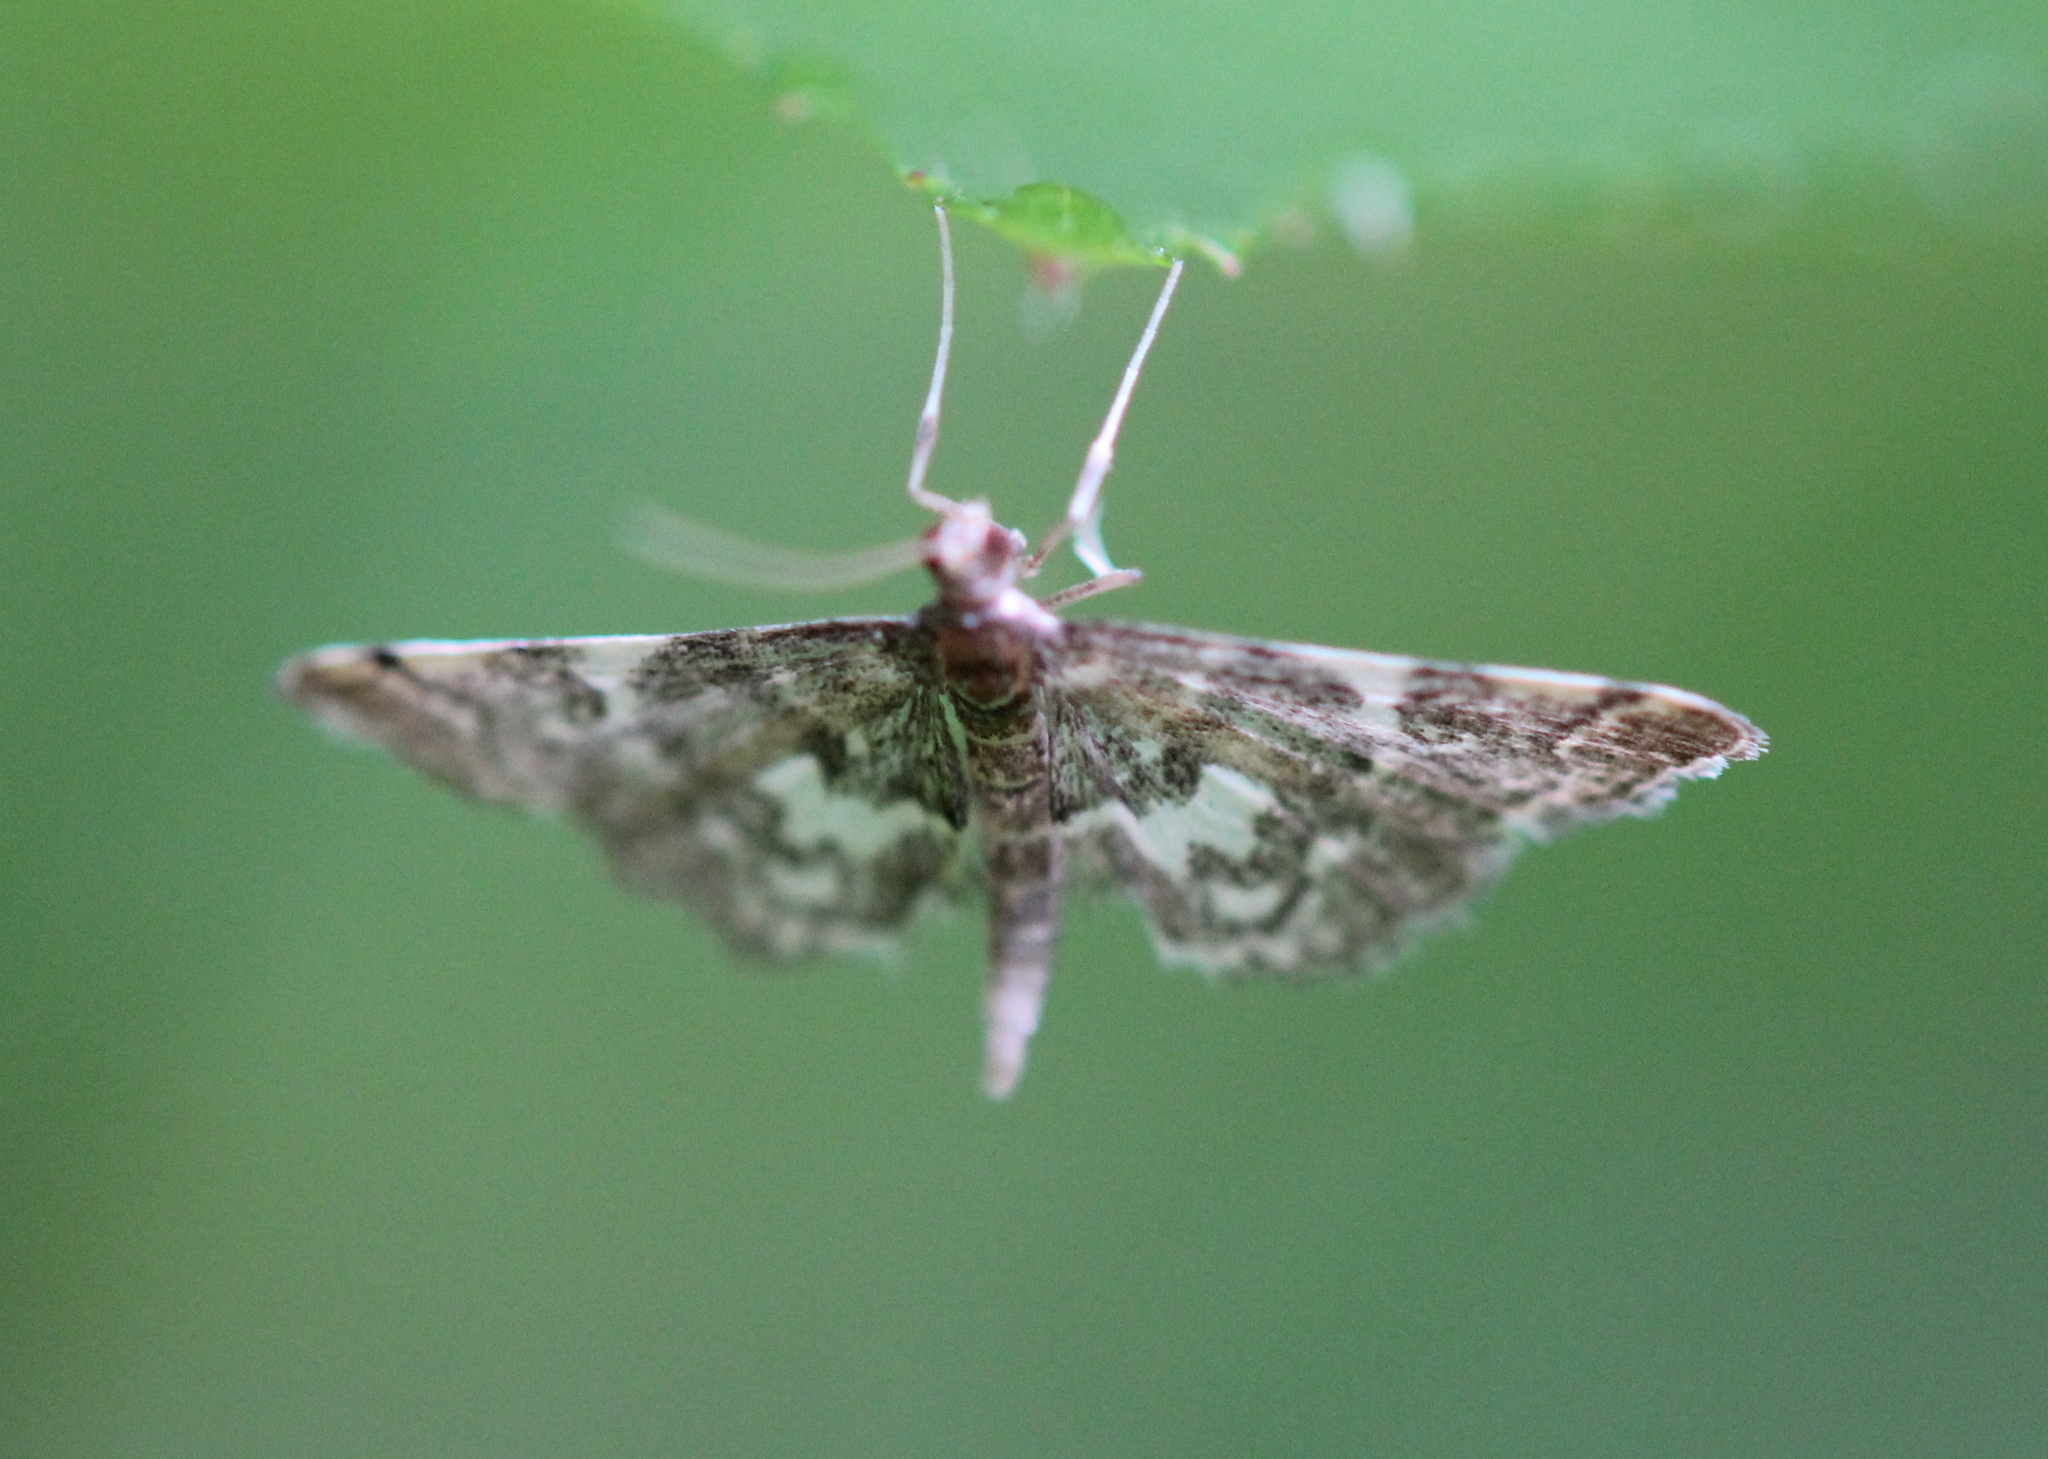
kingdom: Animalia
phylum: Arthropoda
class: Insecta
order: Lepidoptera
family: Crambidae
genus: Anageshna
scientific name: Anageshna primordialis
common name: Yellow-spotted webworm moth
